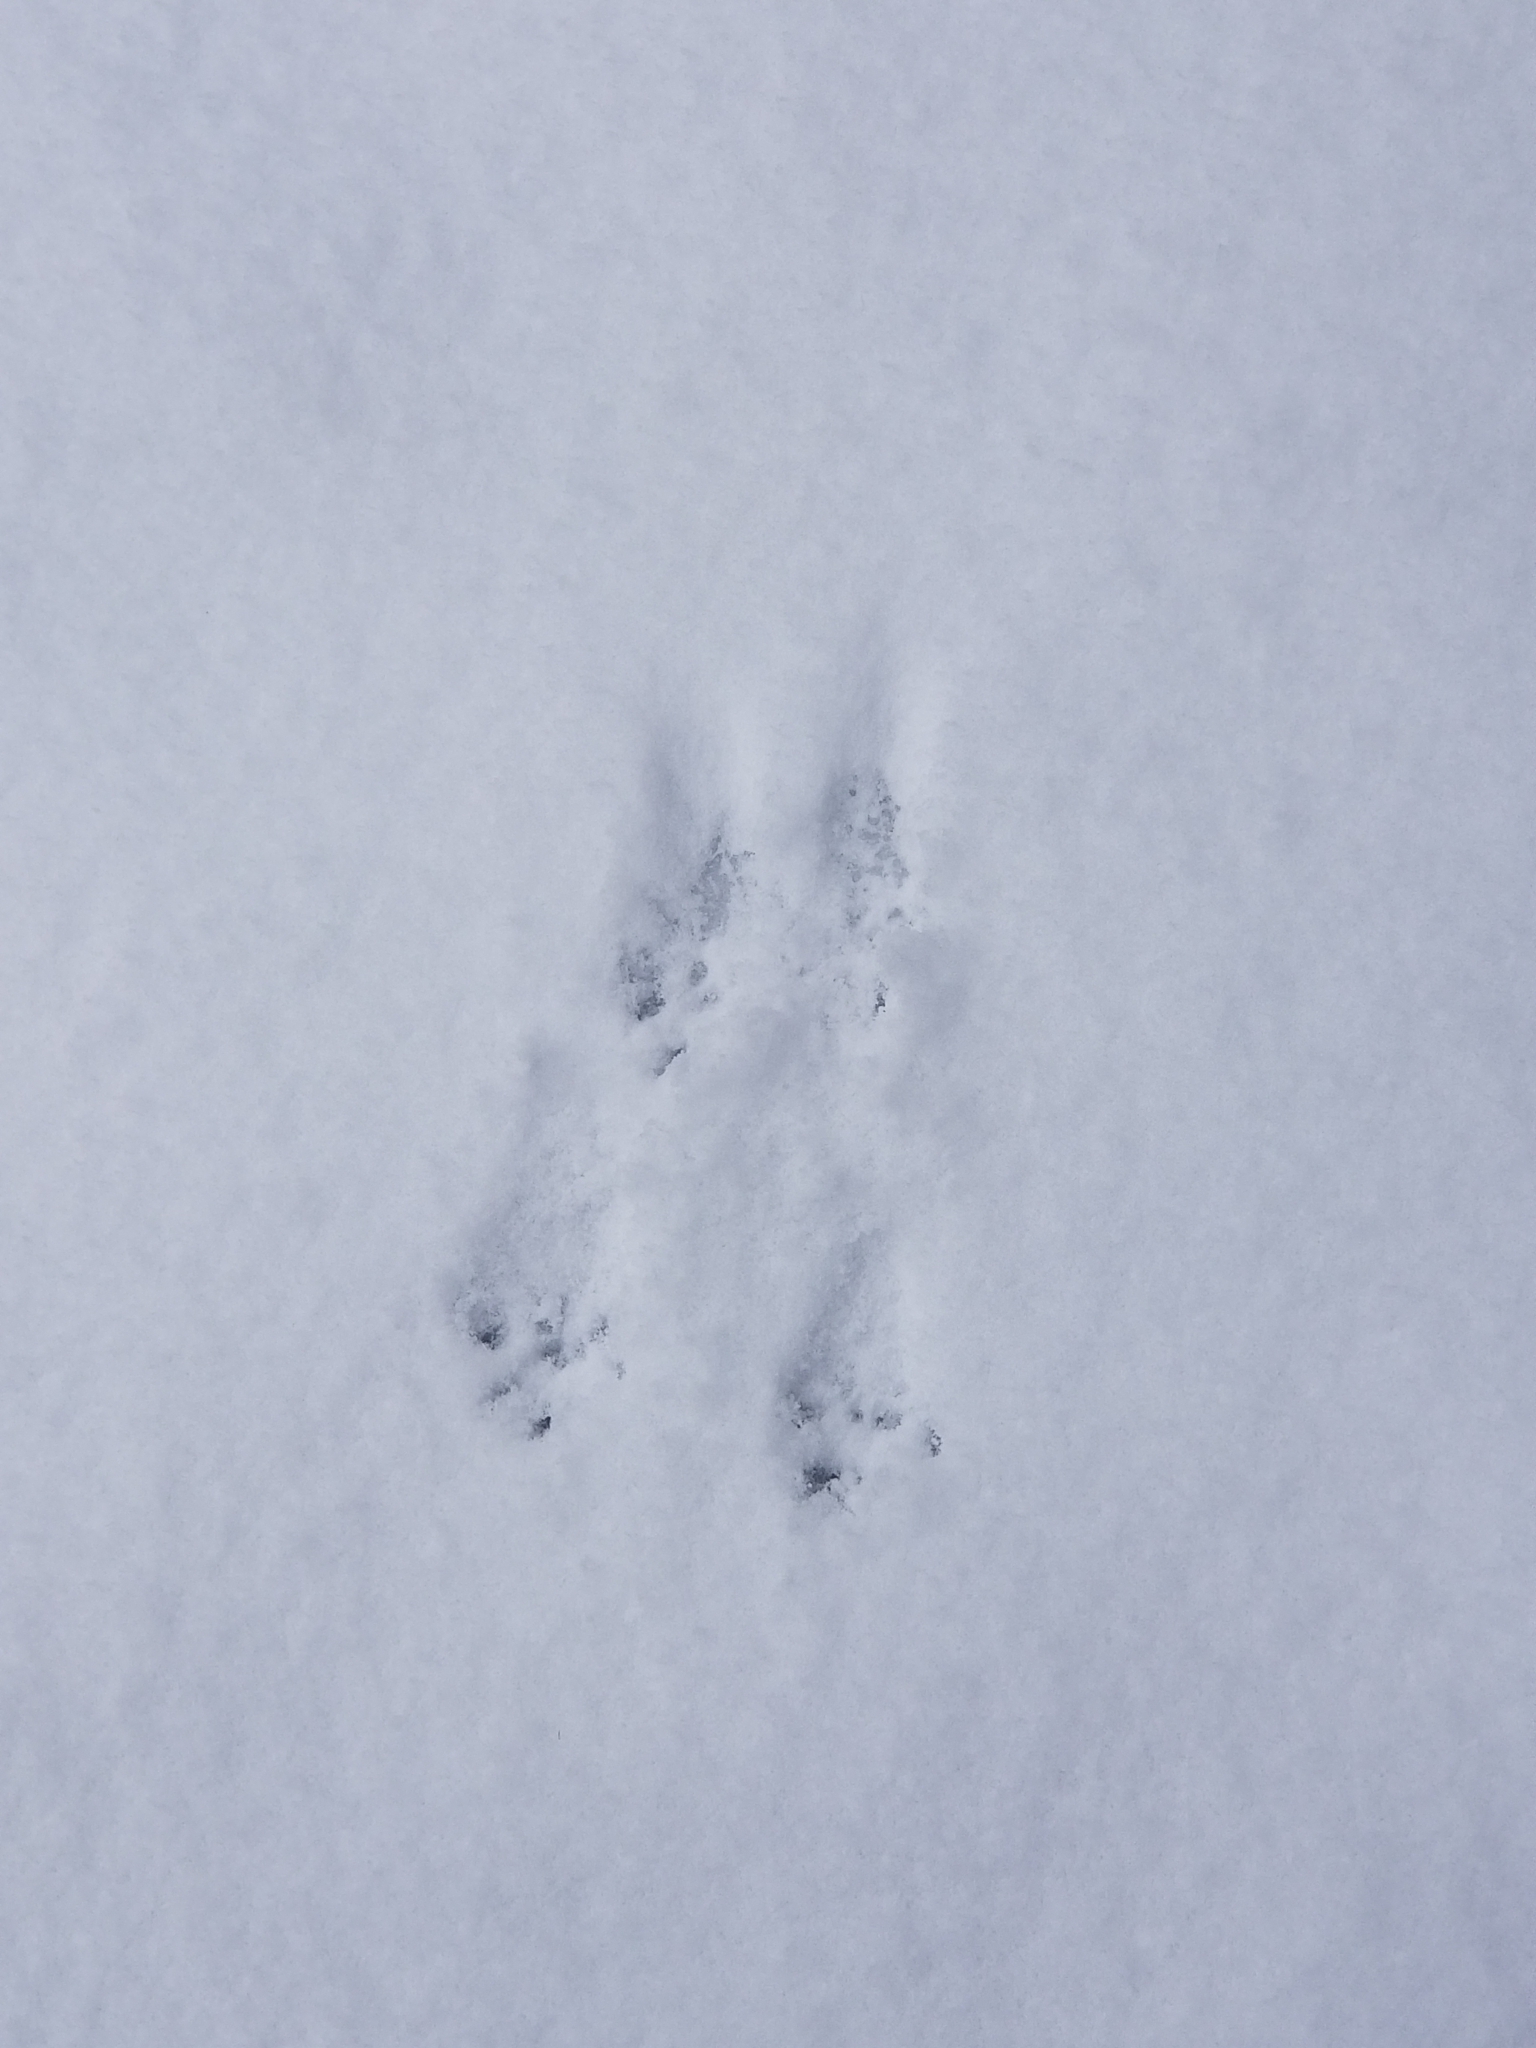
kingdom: Animalia
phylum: Chordata
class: Mammalia
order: Lagomorpha
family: Leporidae
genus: Sylvilagus
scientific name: Sylvilagus floridanus
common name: Eastern cottontail
